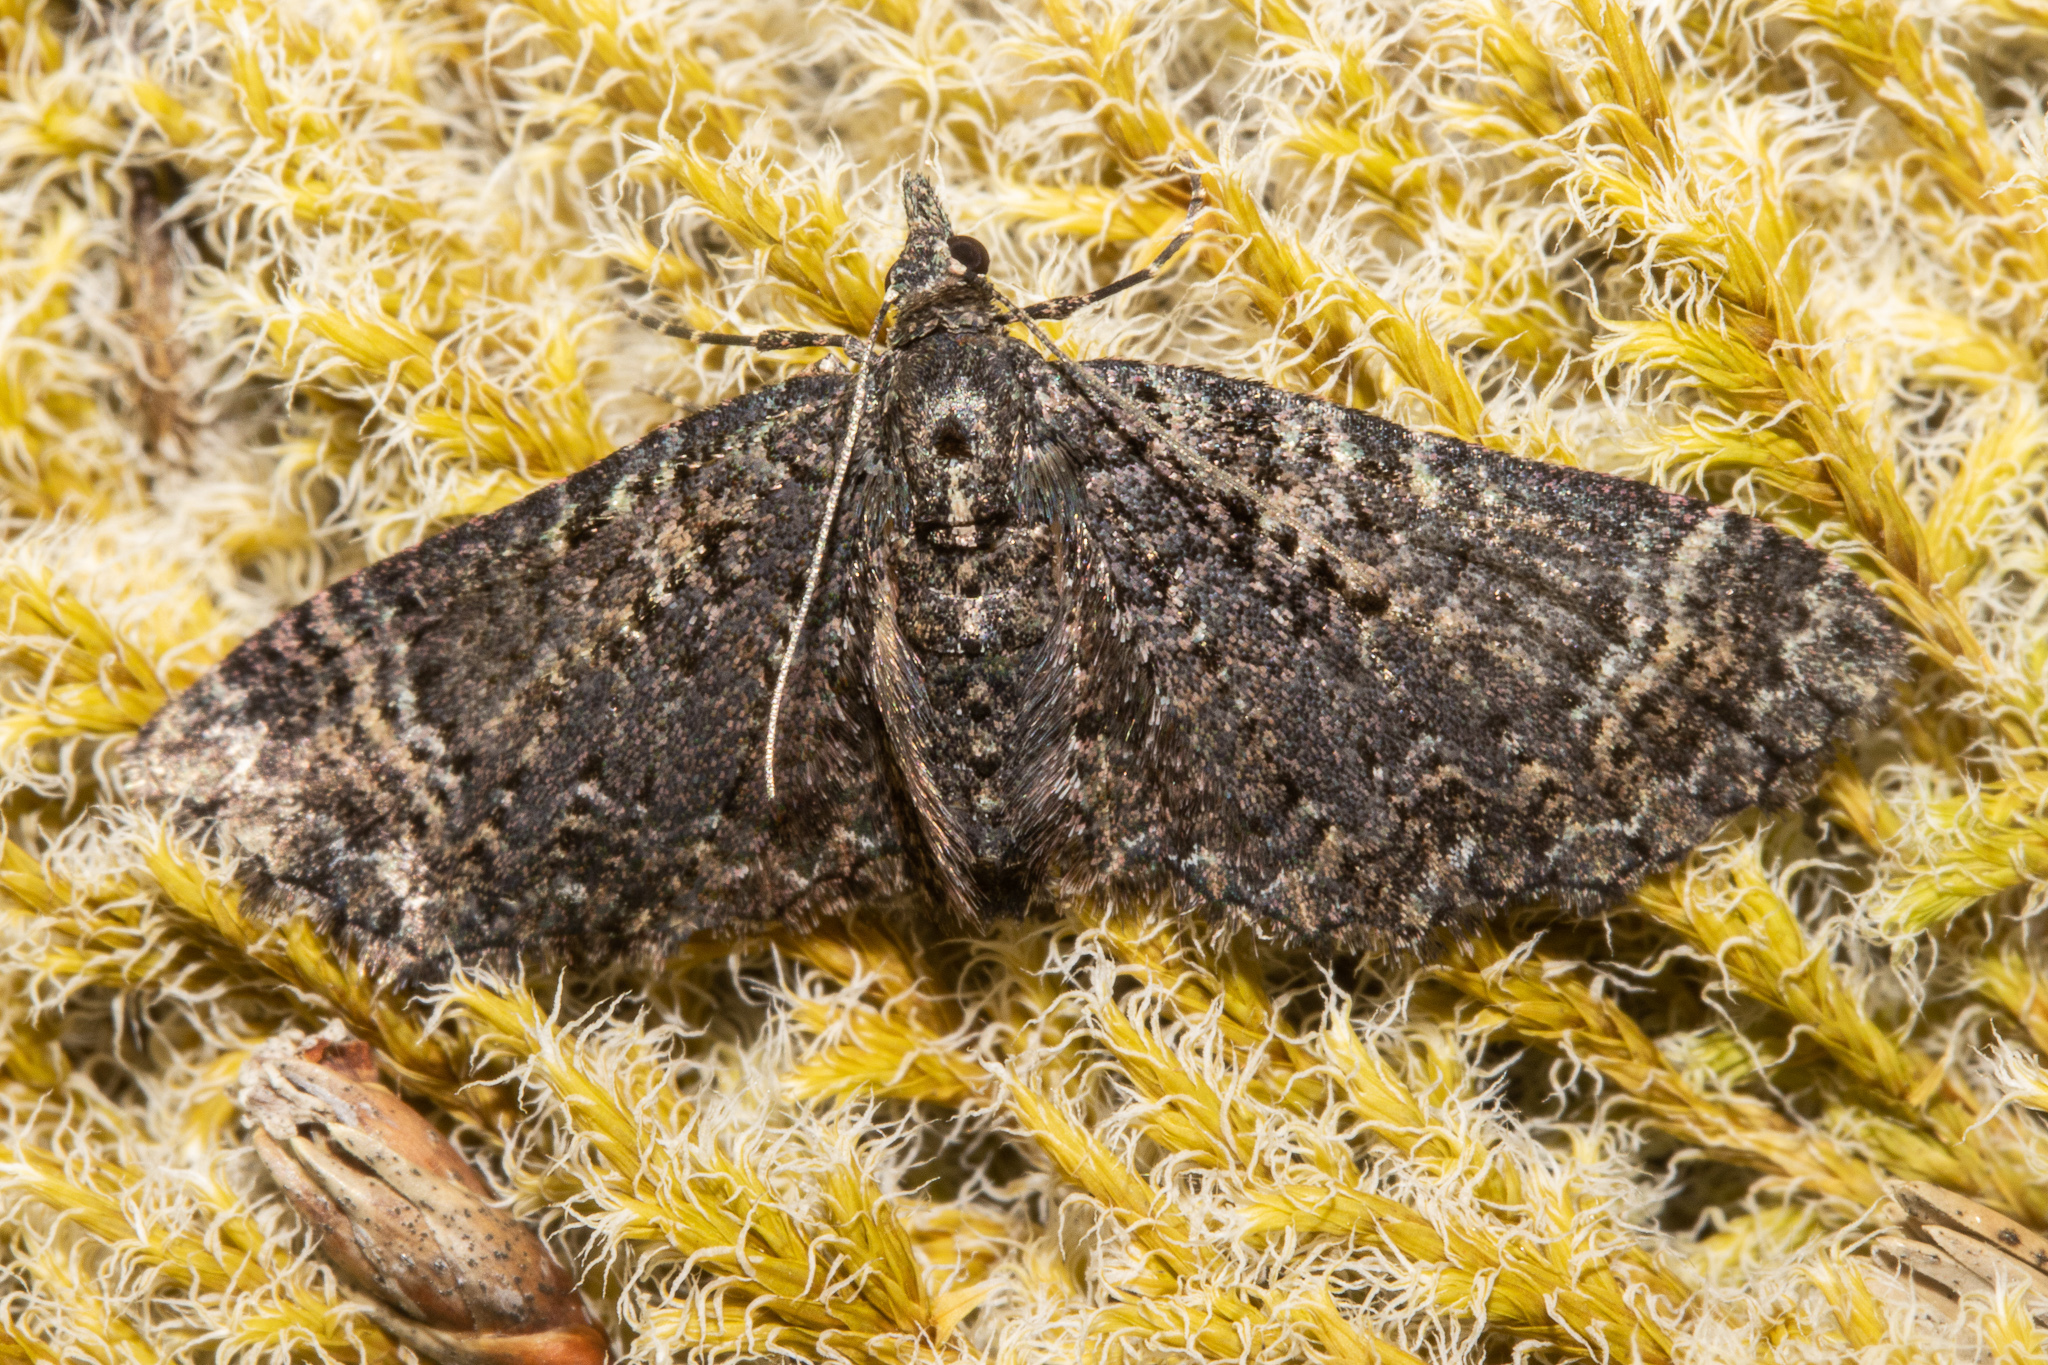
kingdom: Animalia
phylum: Arthropoda
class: Insecta
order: Lepidoptera
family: Geometridae
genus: Pasiphila
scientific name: Pasiphila rubella
